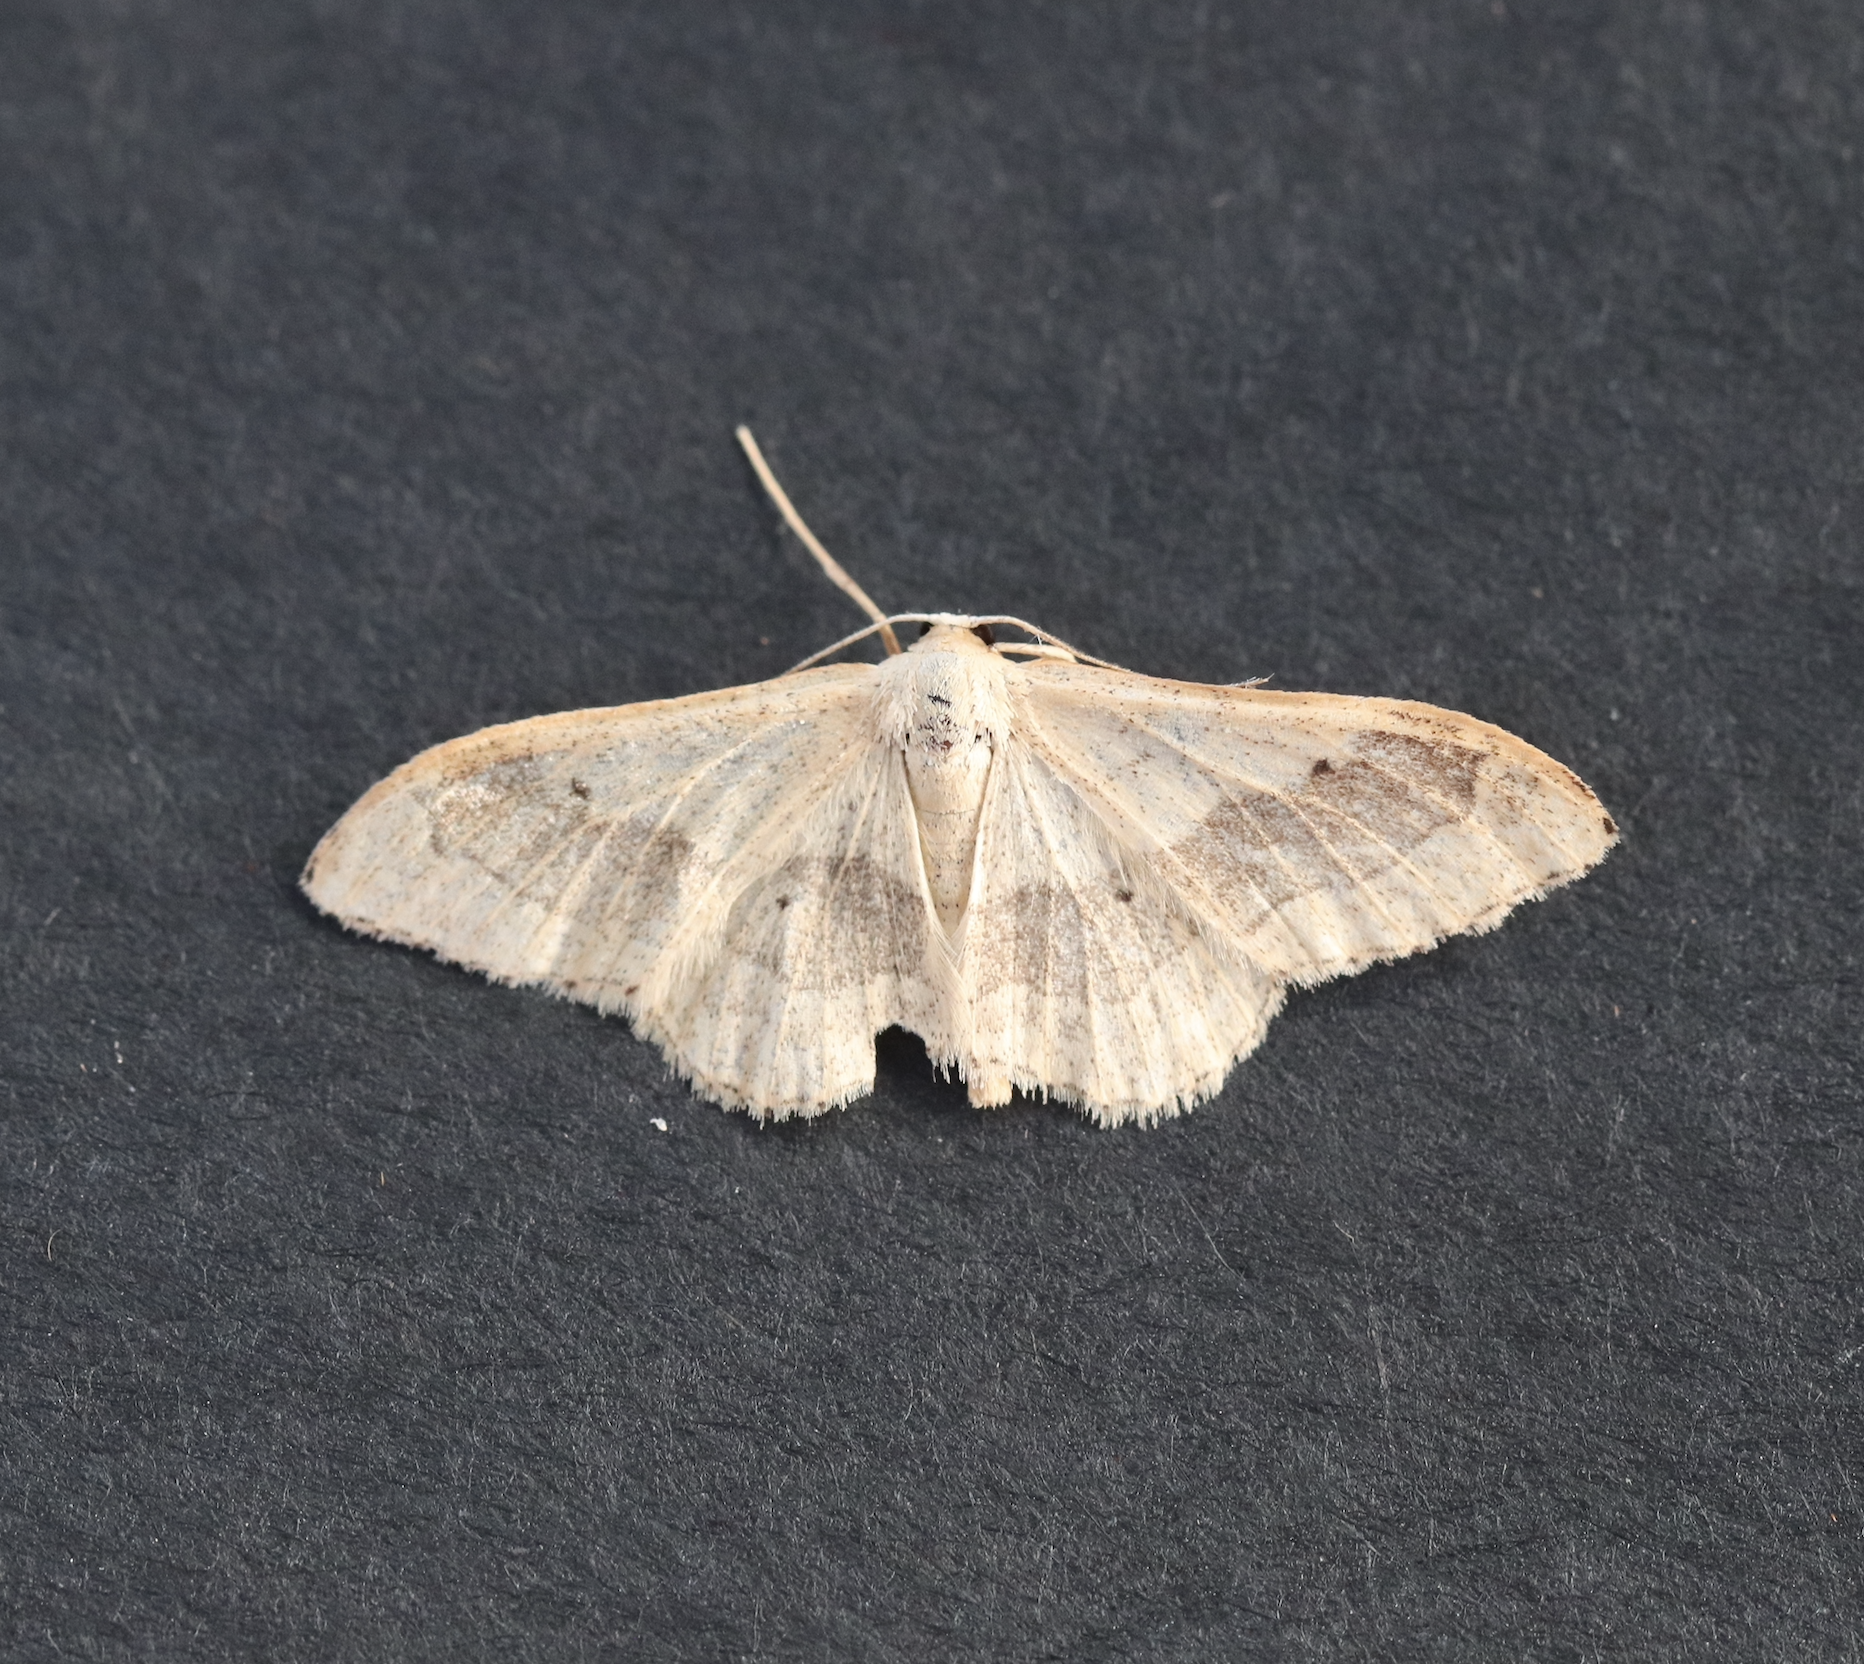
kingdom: Animalia
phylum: Arthropoda
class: Insecta
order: Lepidoptera
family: Geometridae
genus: Idaea
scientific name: Idaea aversata
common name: Riband wave
